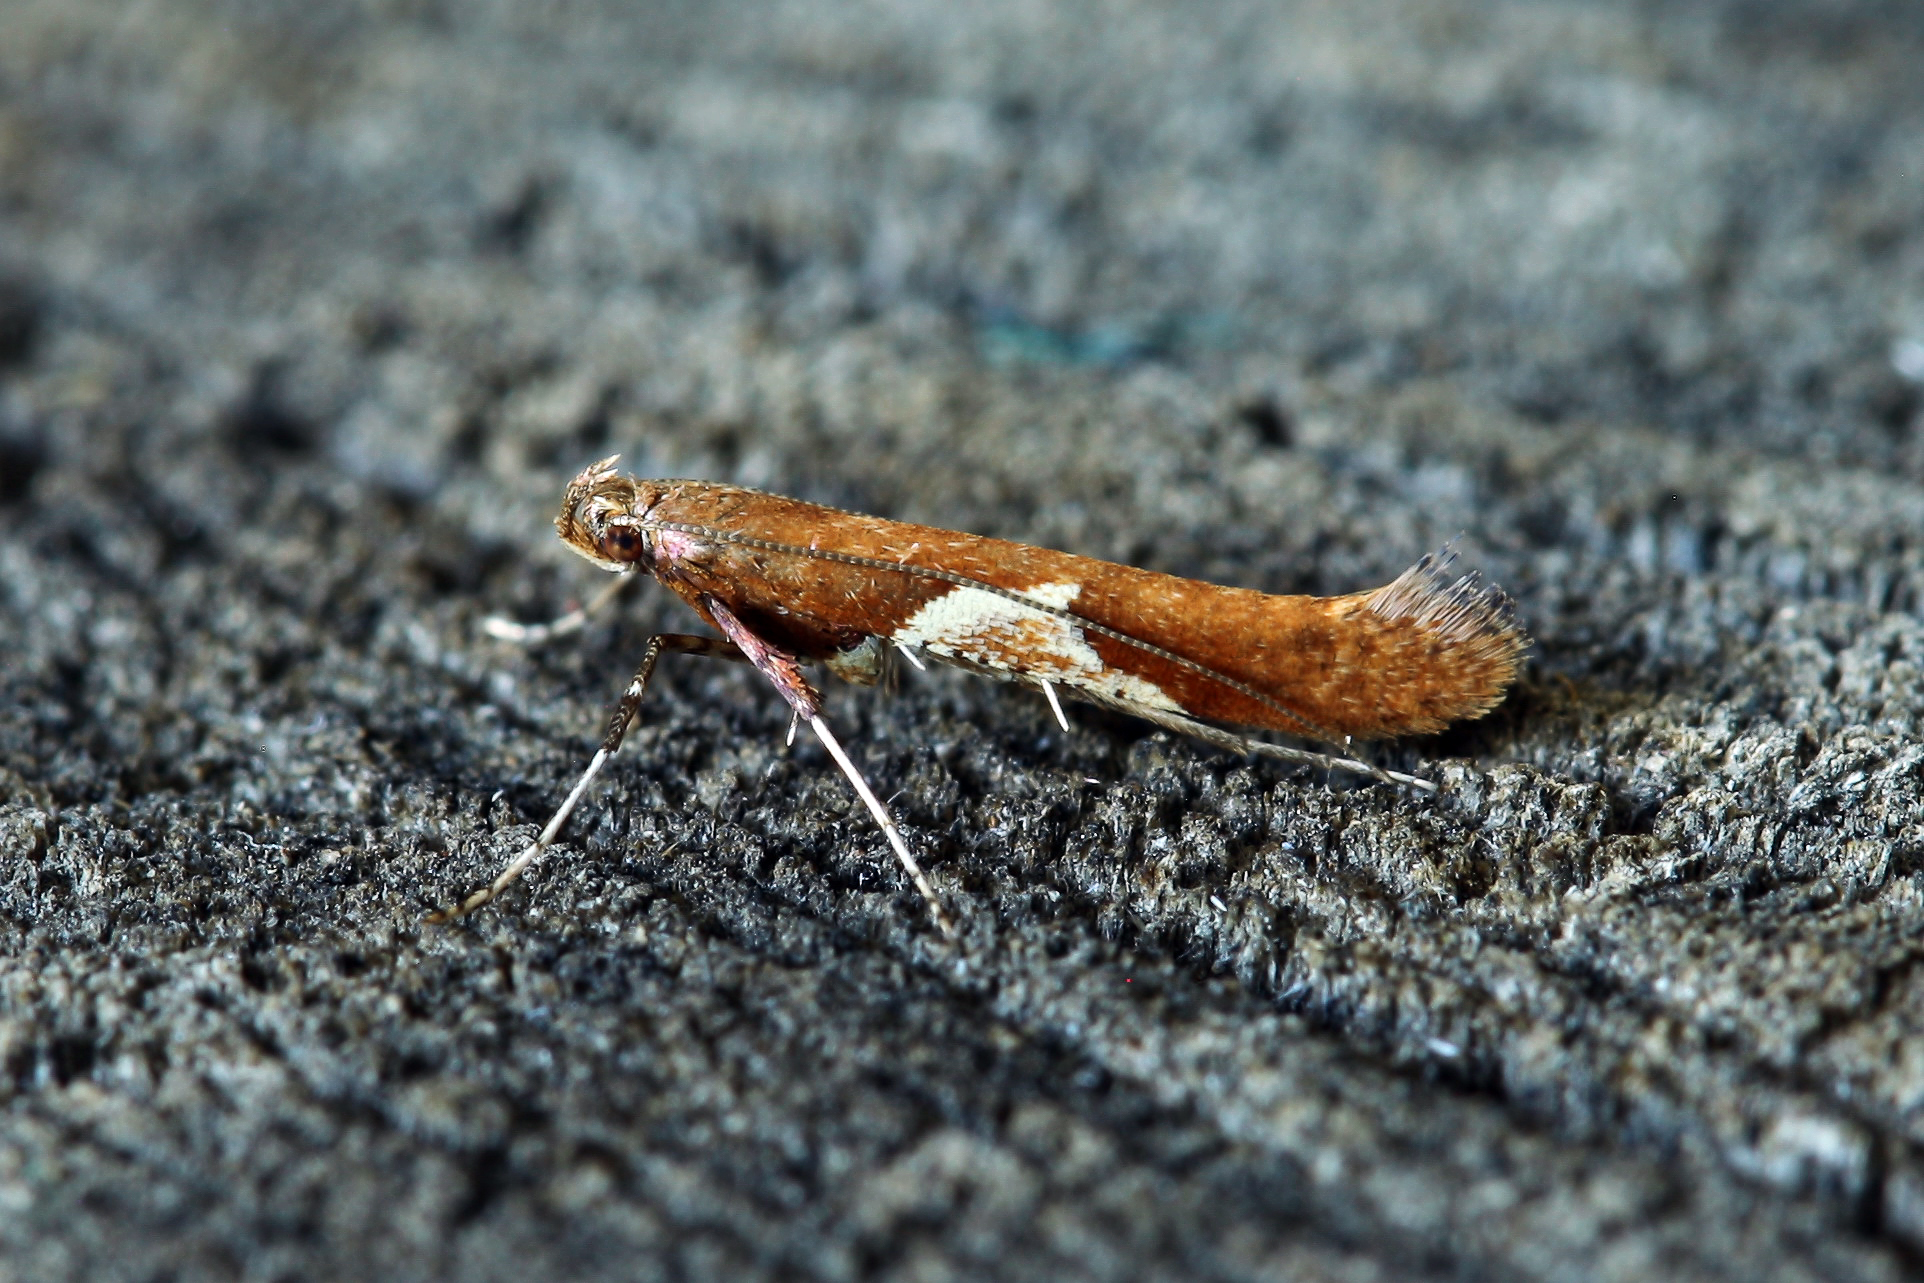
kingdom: Animalia
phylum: Arthropoda
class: Insecta
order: Lepidoptera
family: Gracillariidae
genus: Caloptilia
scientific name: Caloptilia stigmatella
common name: White-triangle slender
